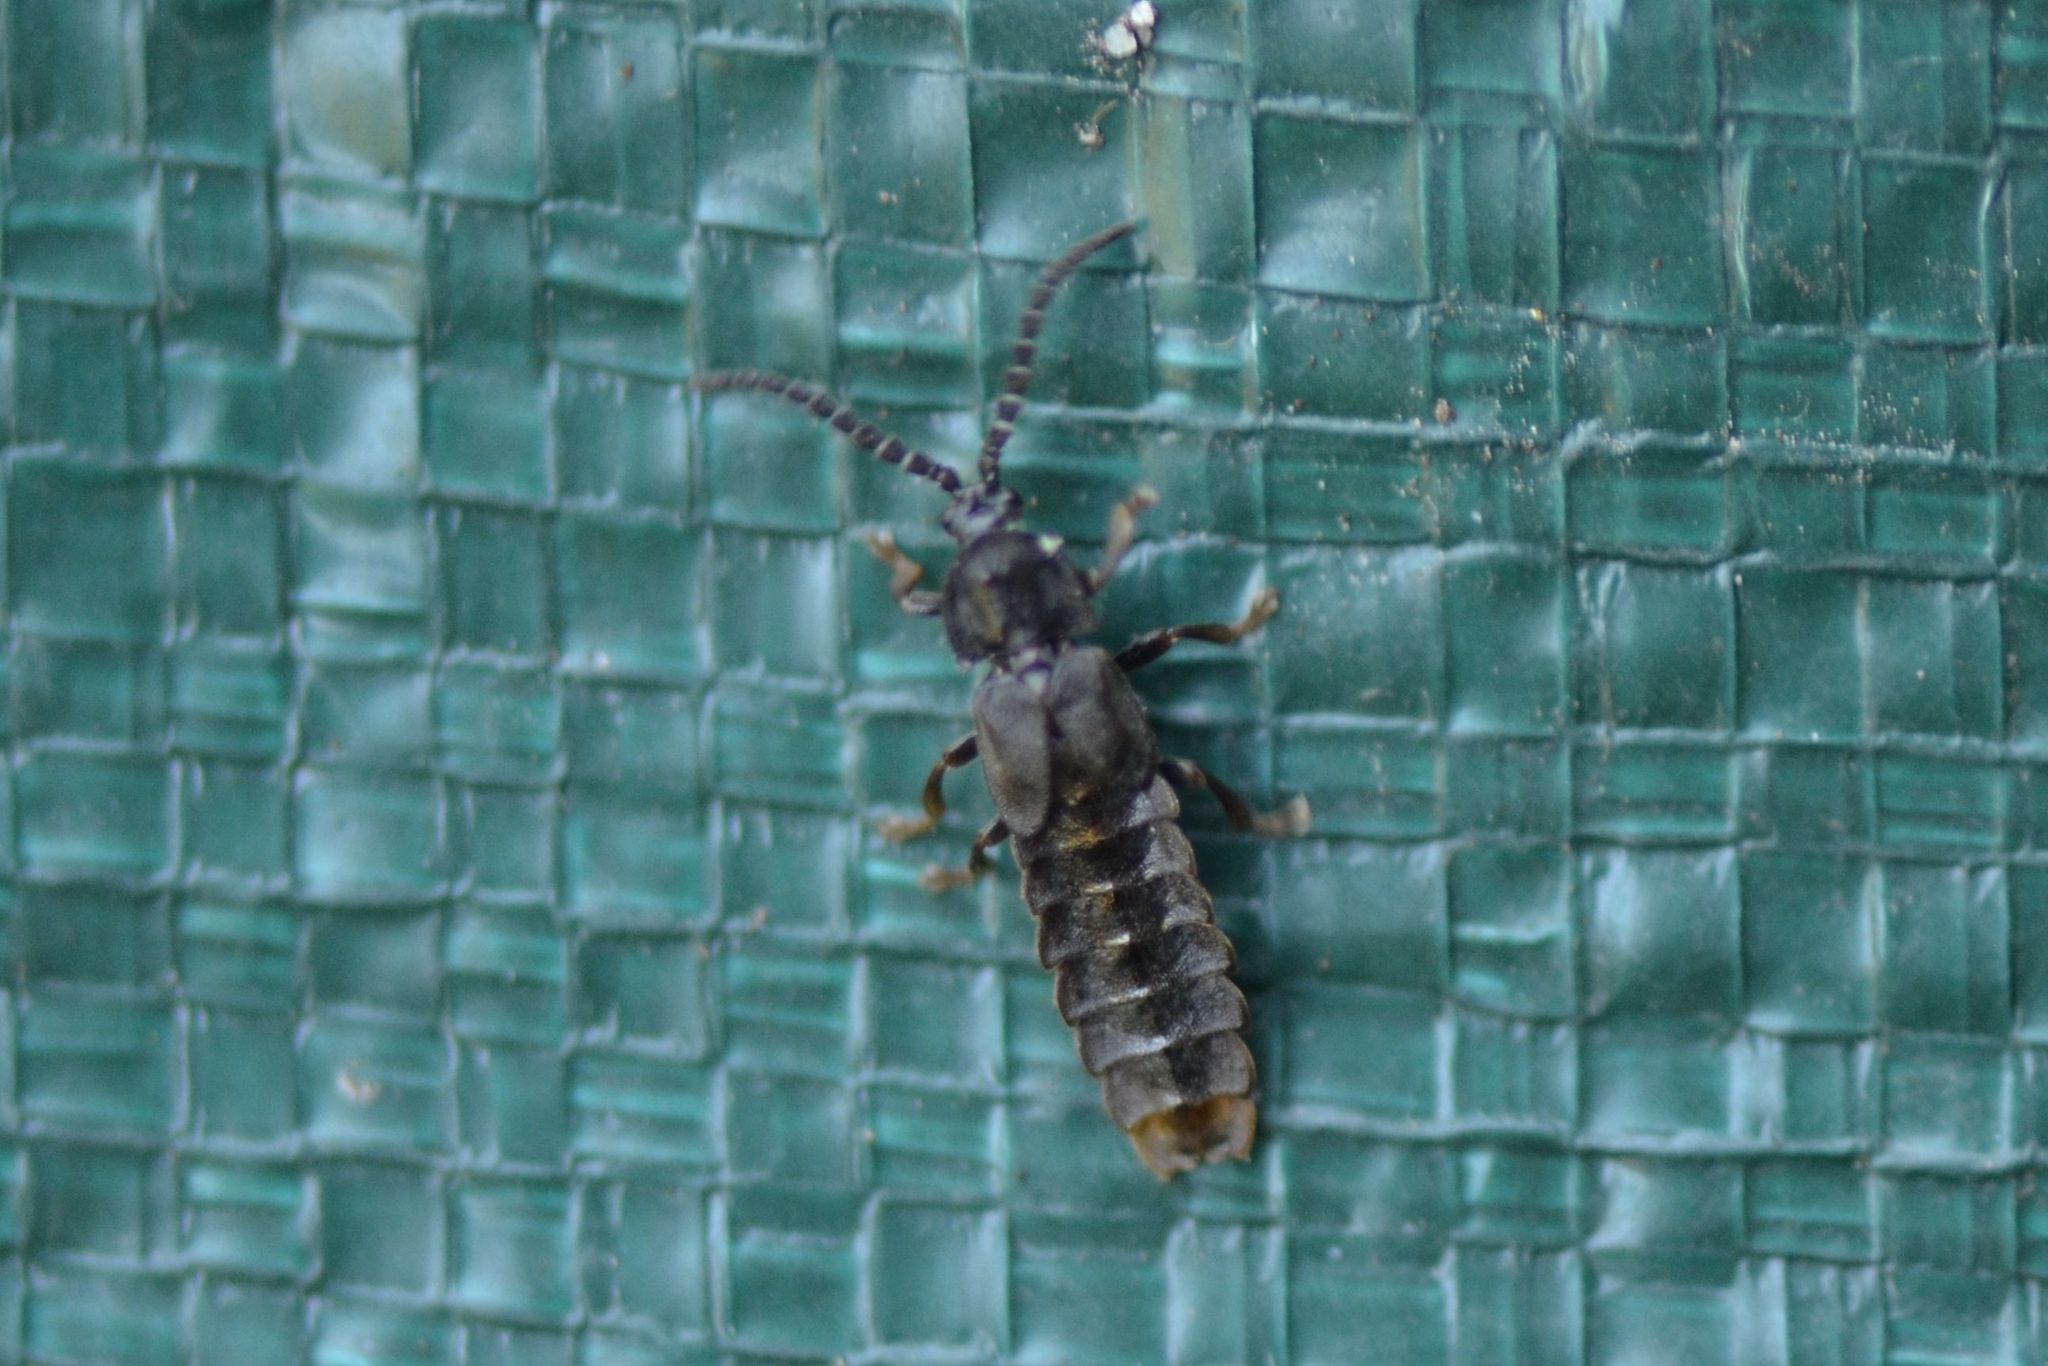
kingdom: Animalia
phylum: Arthropoda
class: Insecta
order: Coleoptera
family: Lampyridae
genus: Phosphaenus
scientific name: Phosphaenus hemipterus
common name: Short-winged firefly
